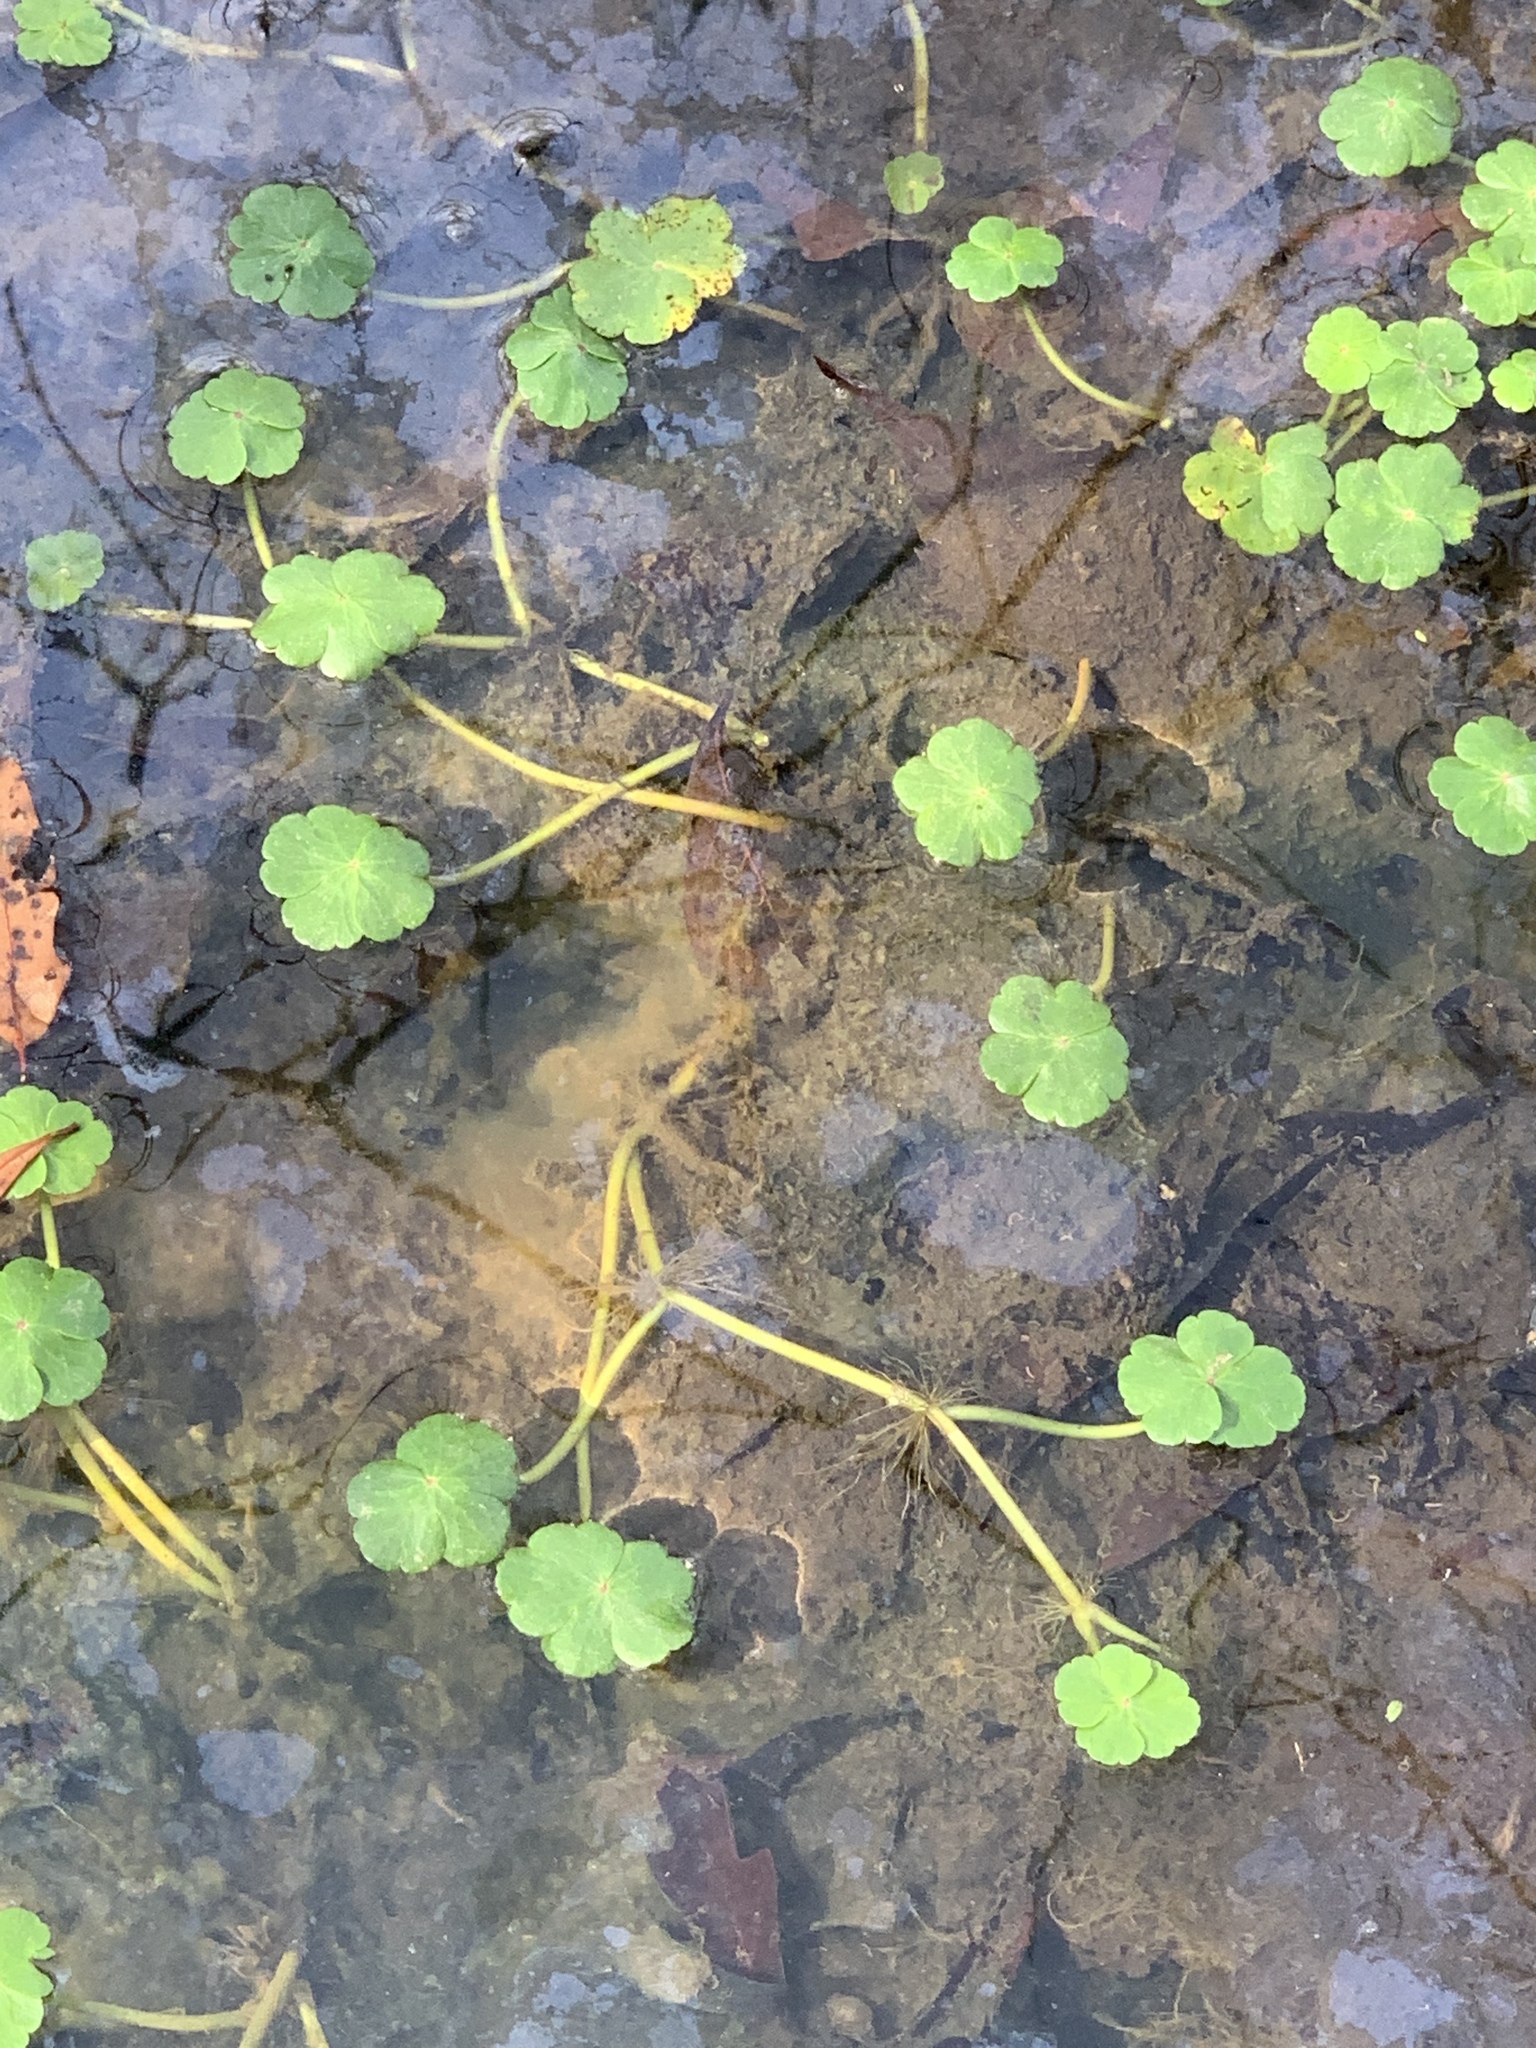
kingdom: Plantae
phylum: Tracheophyta
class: Magnoliopsida
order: Apiales
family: Araliaceae
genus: Hydrocotyle
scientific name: Hydrocotyle ranunculoides
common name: Floating pennywort
